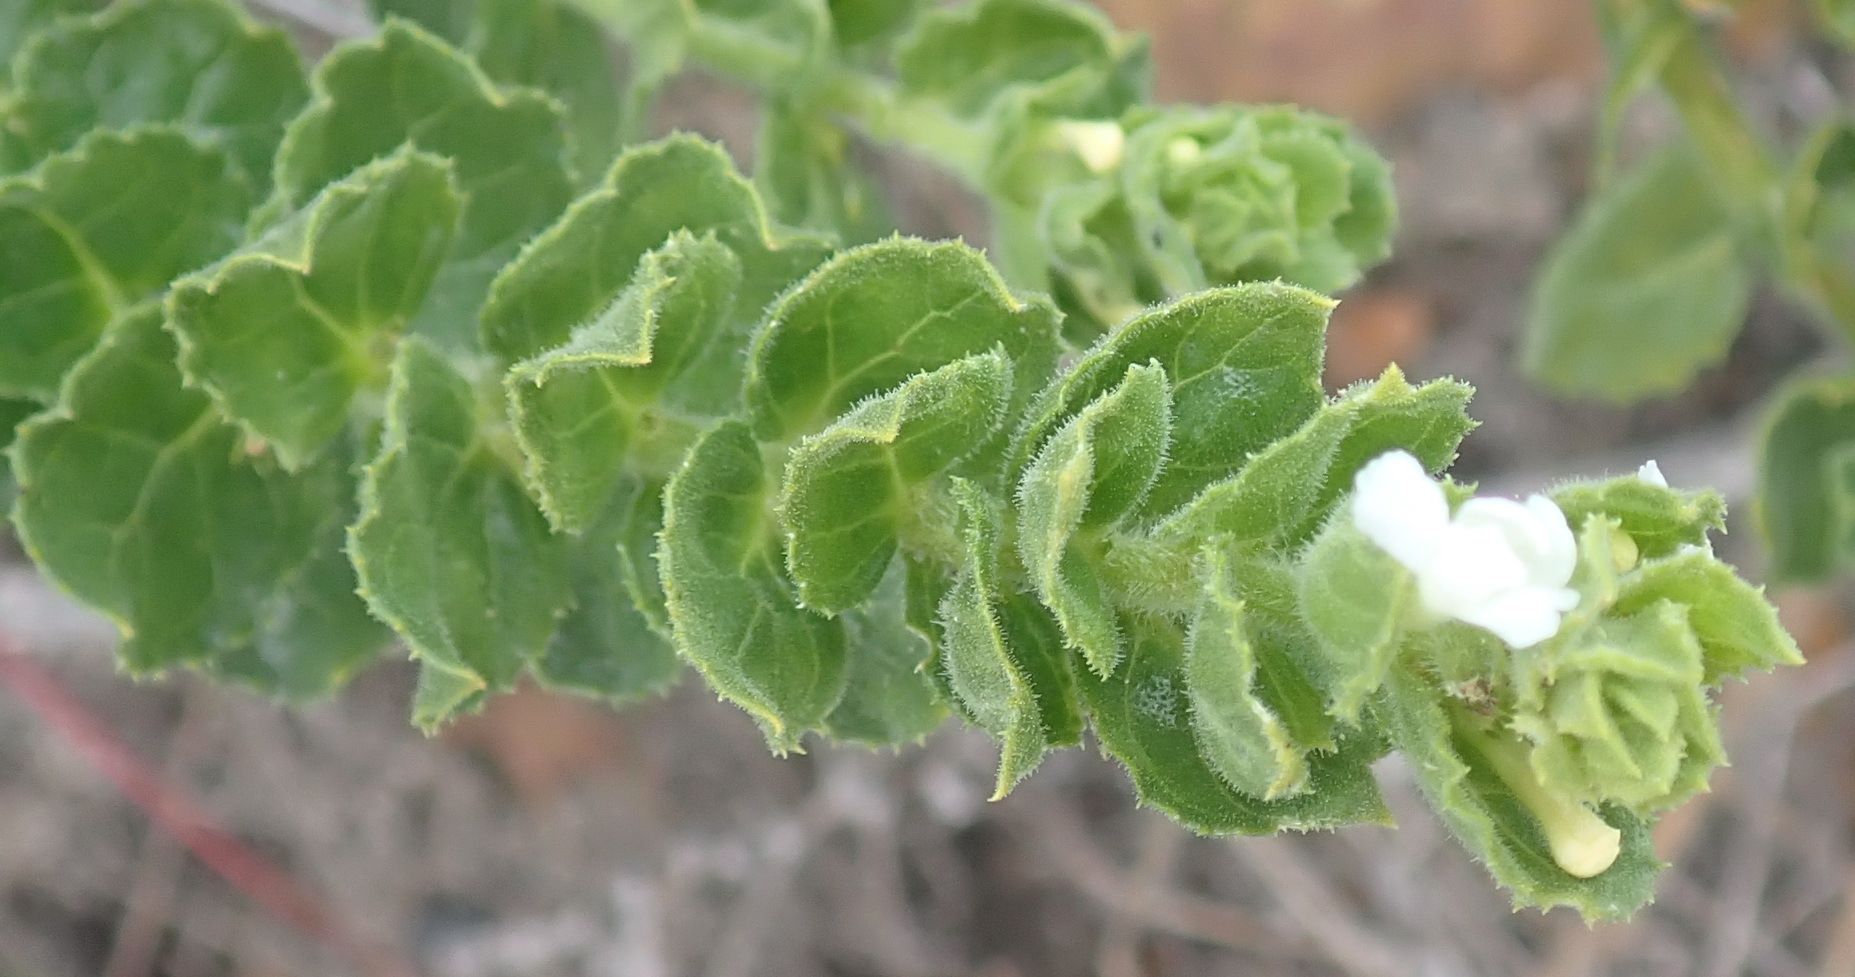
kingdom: Plantae
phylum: Tracheophyta
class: Magnoliopsida
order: Lamiales
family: Scrophulariaceae
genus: Oftia
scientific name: Oftia africana
